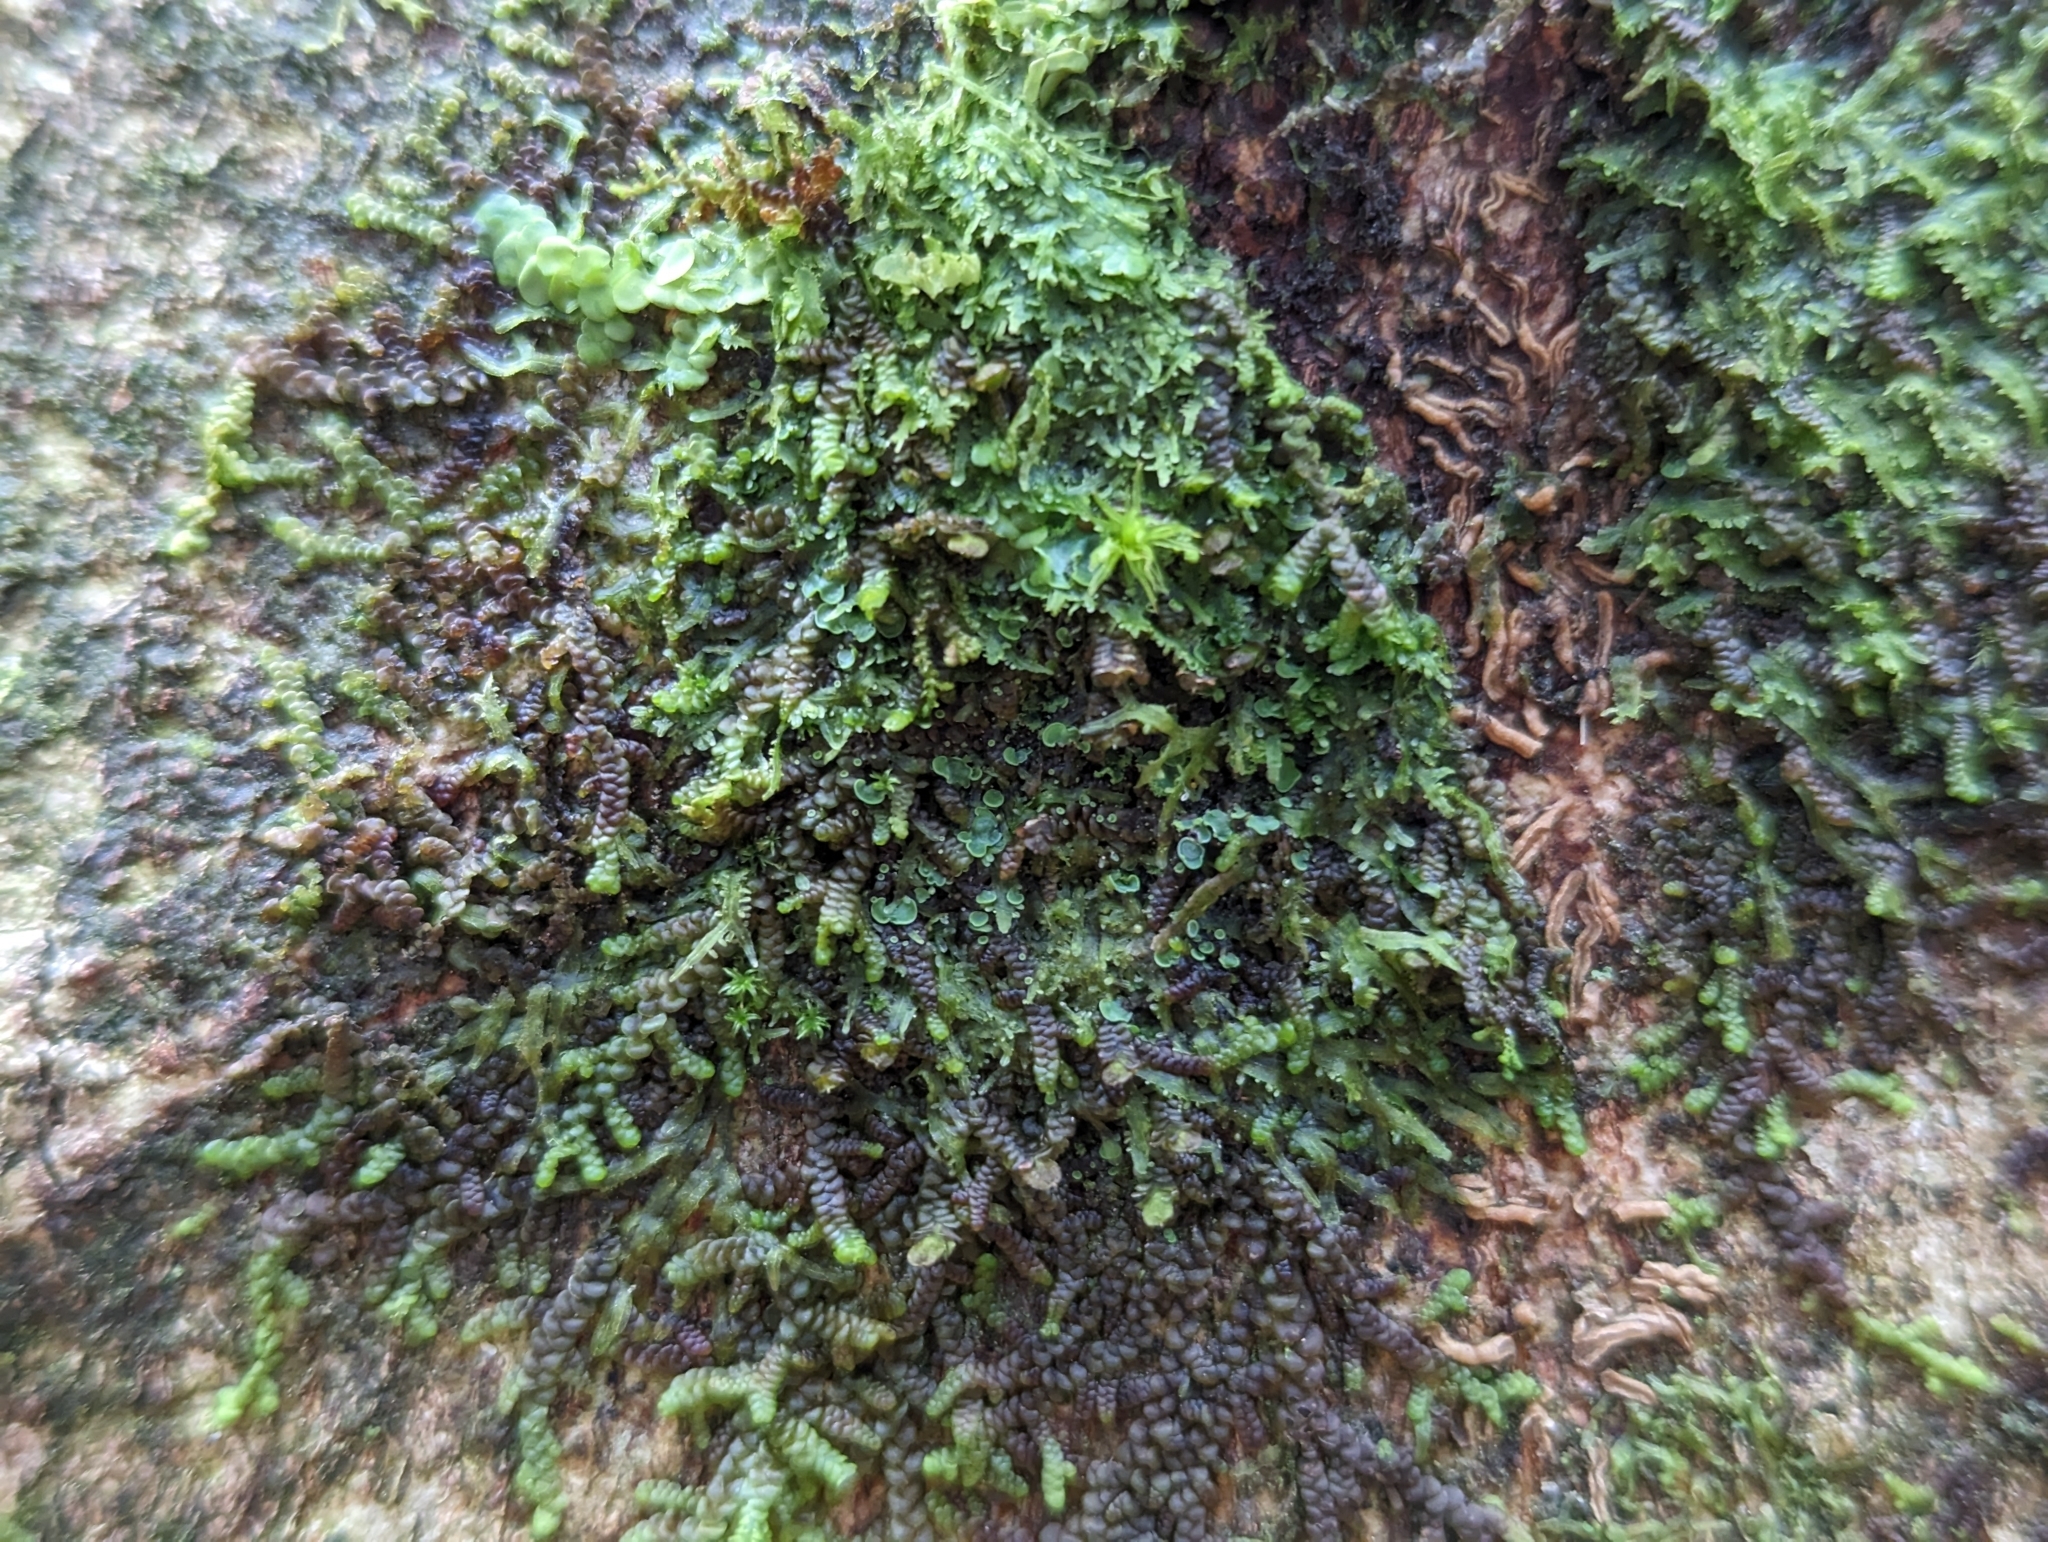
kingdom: Fungi
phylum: Ascomycota
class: Eurotiomycetes
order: Verrucariales
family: Verrucariaceae
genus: Normandina
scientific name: Normandina pulchella
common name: Elf ears lichen
